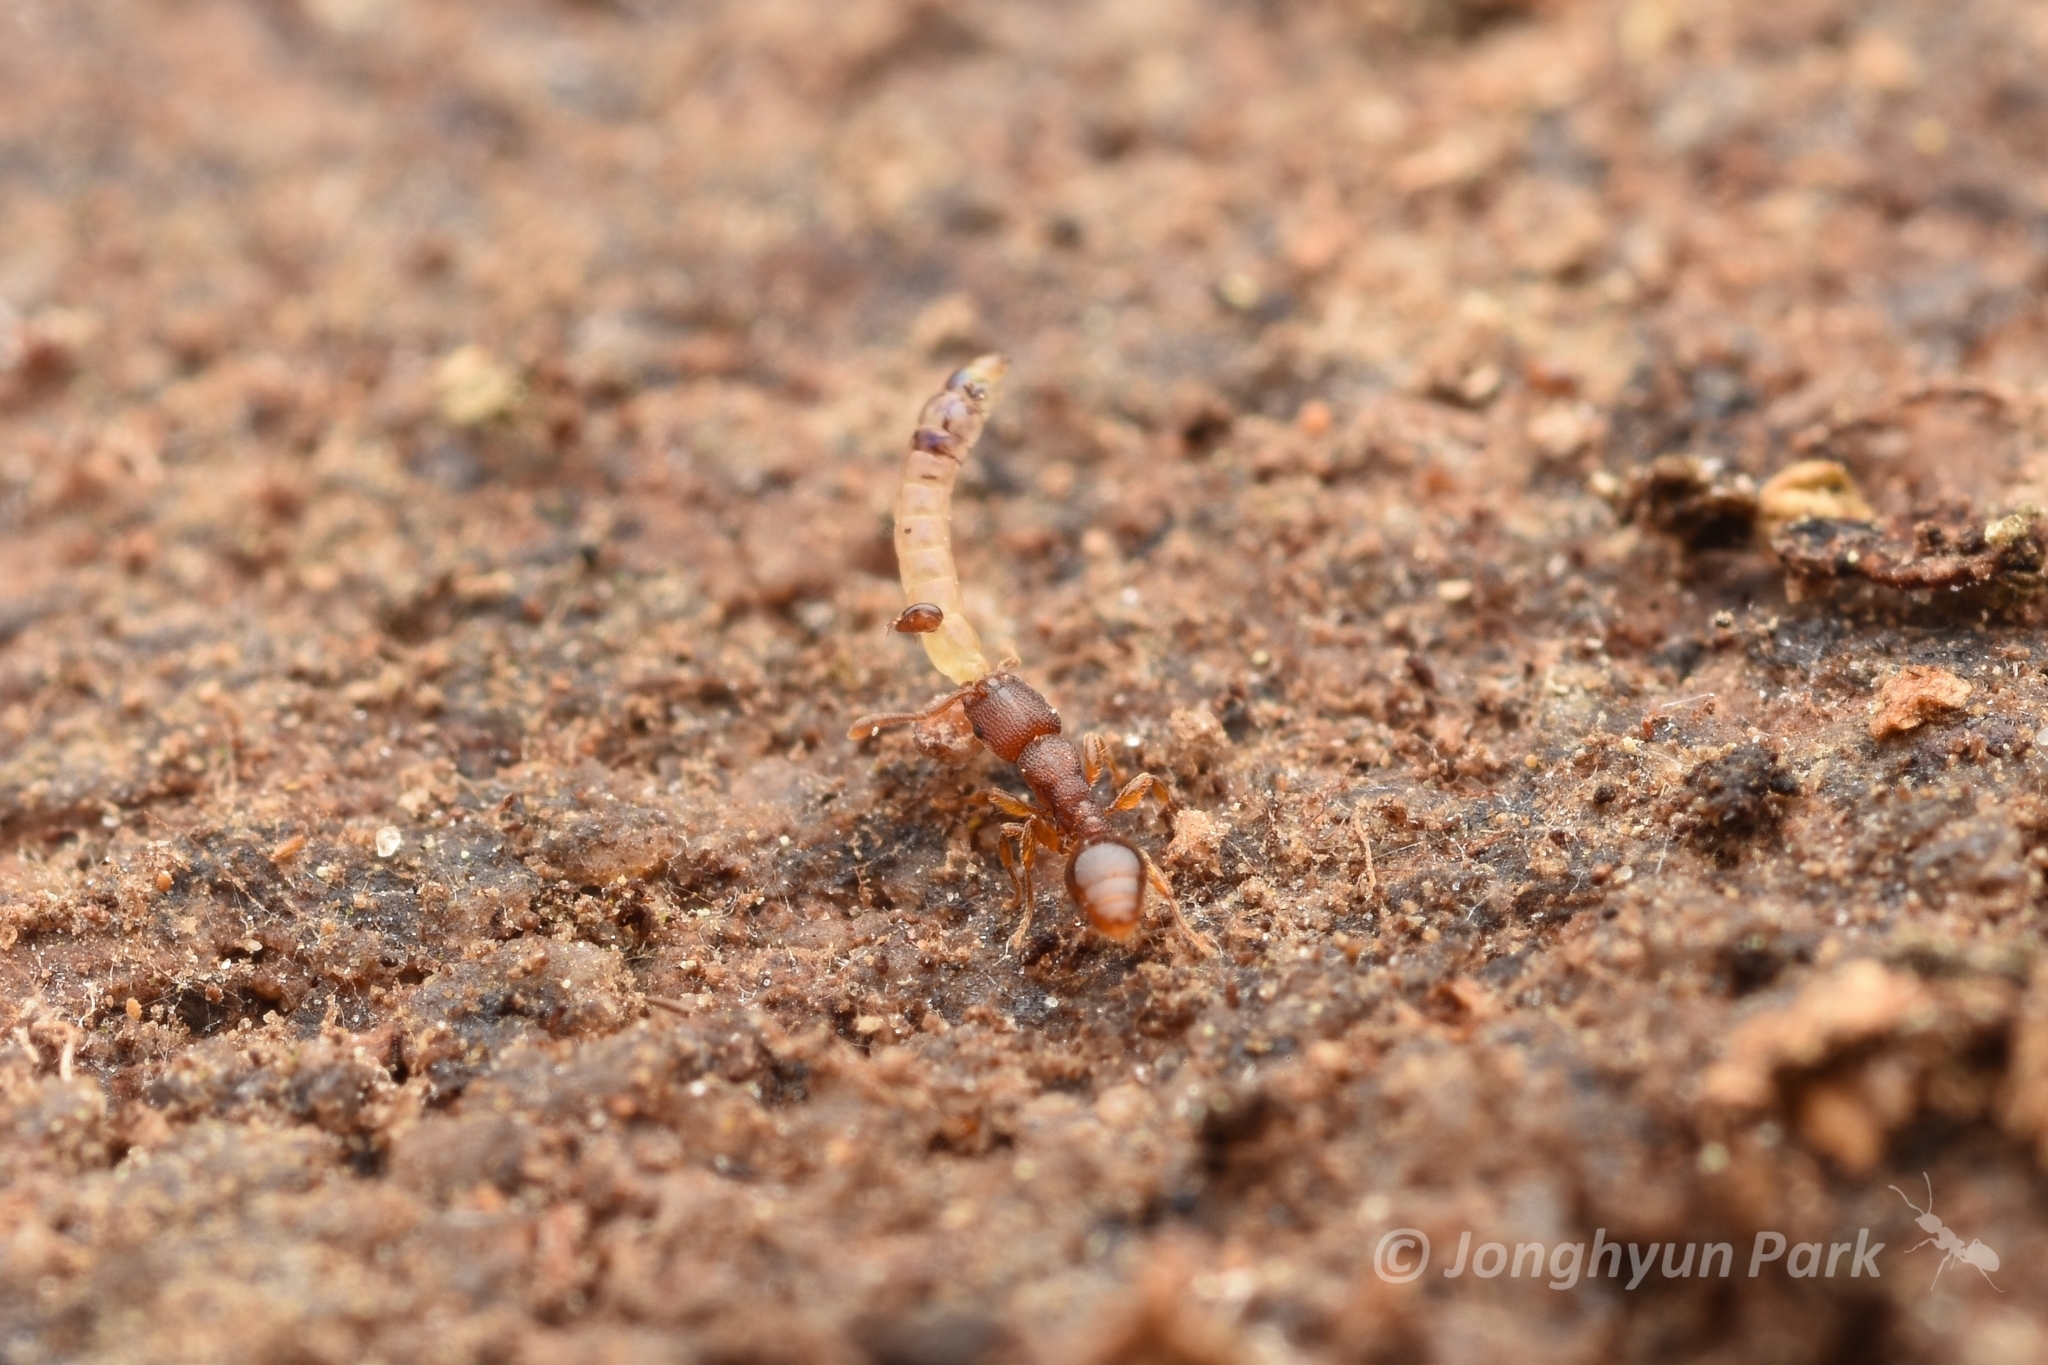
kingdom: Animalia
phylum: Arthropoda
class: Insecta
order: Hymenoptera
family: Formicidae
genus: Vollenhovia
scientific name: Vollenhovia emeryi
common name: Ant
